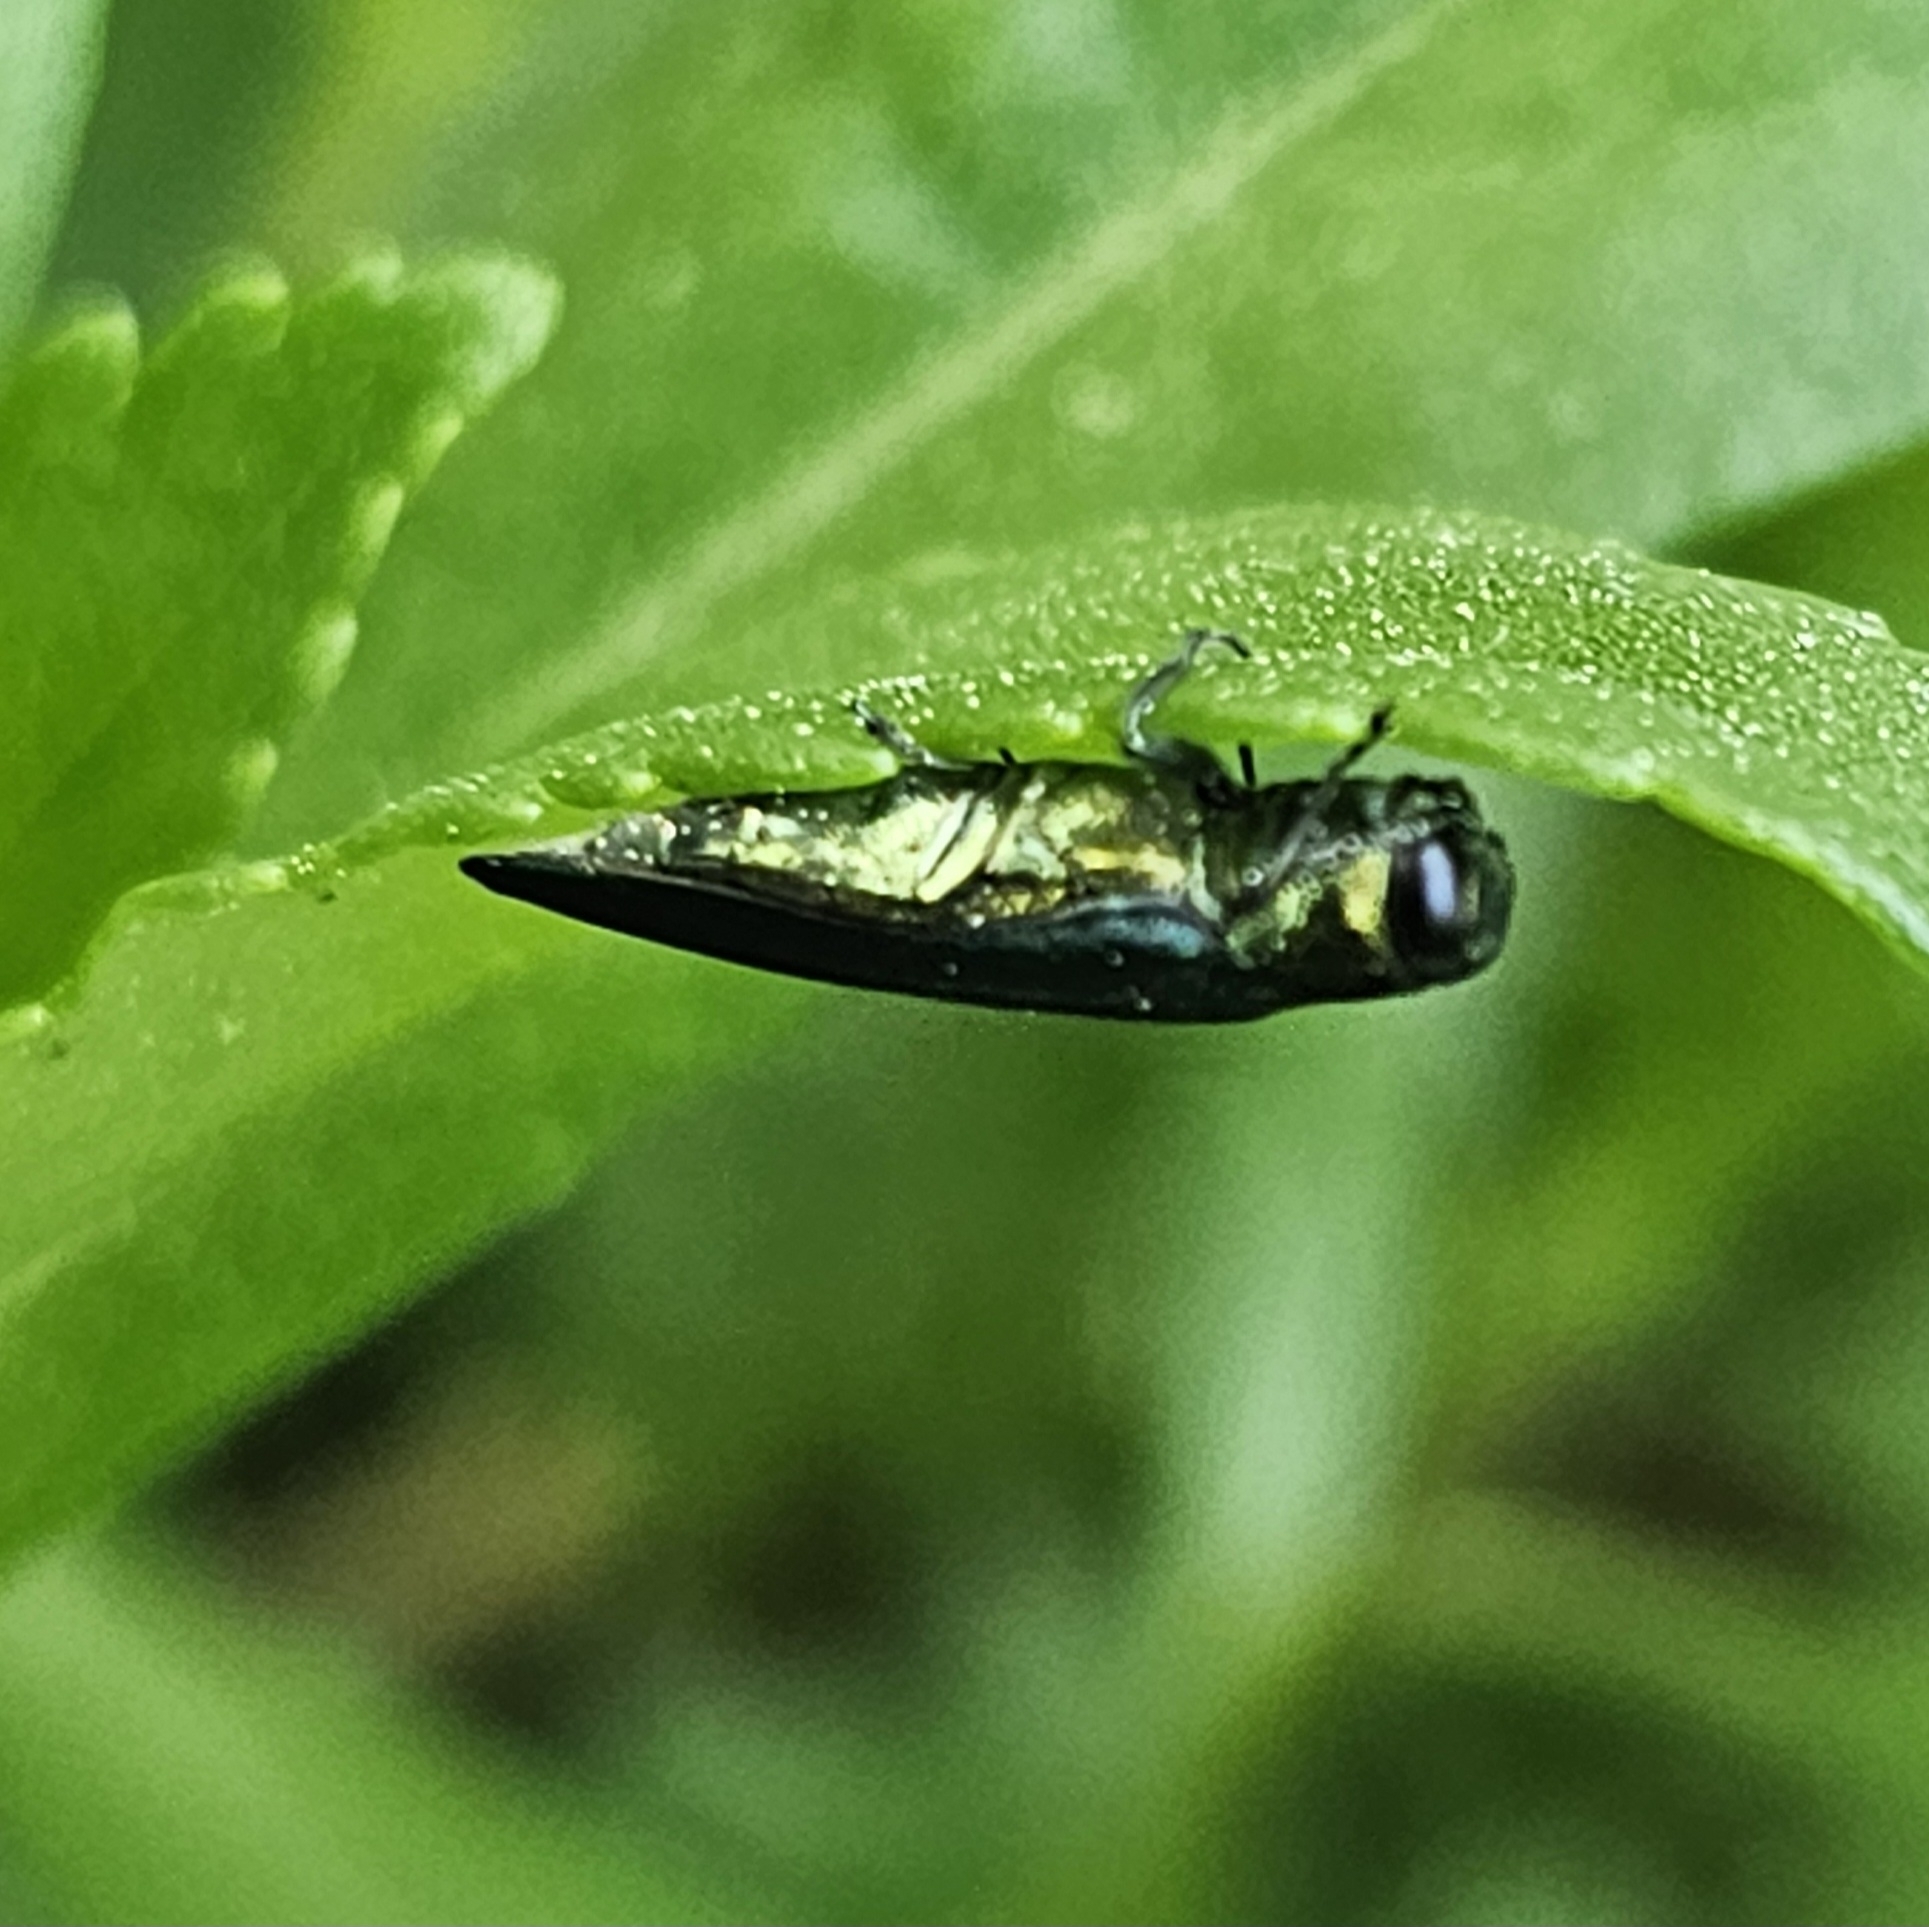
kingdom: Animalia
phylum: Arthropoda
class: Insecta
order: Coleoptera
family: Buprestidae
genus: Agrilus
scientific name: Agrilus planipennis
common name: Emerald ash borer
